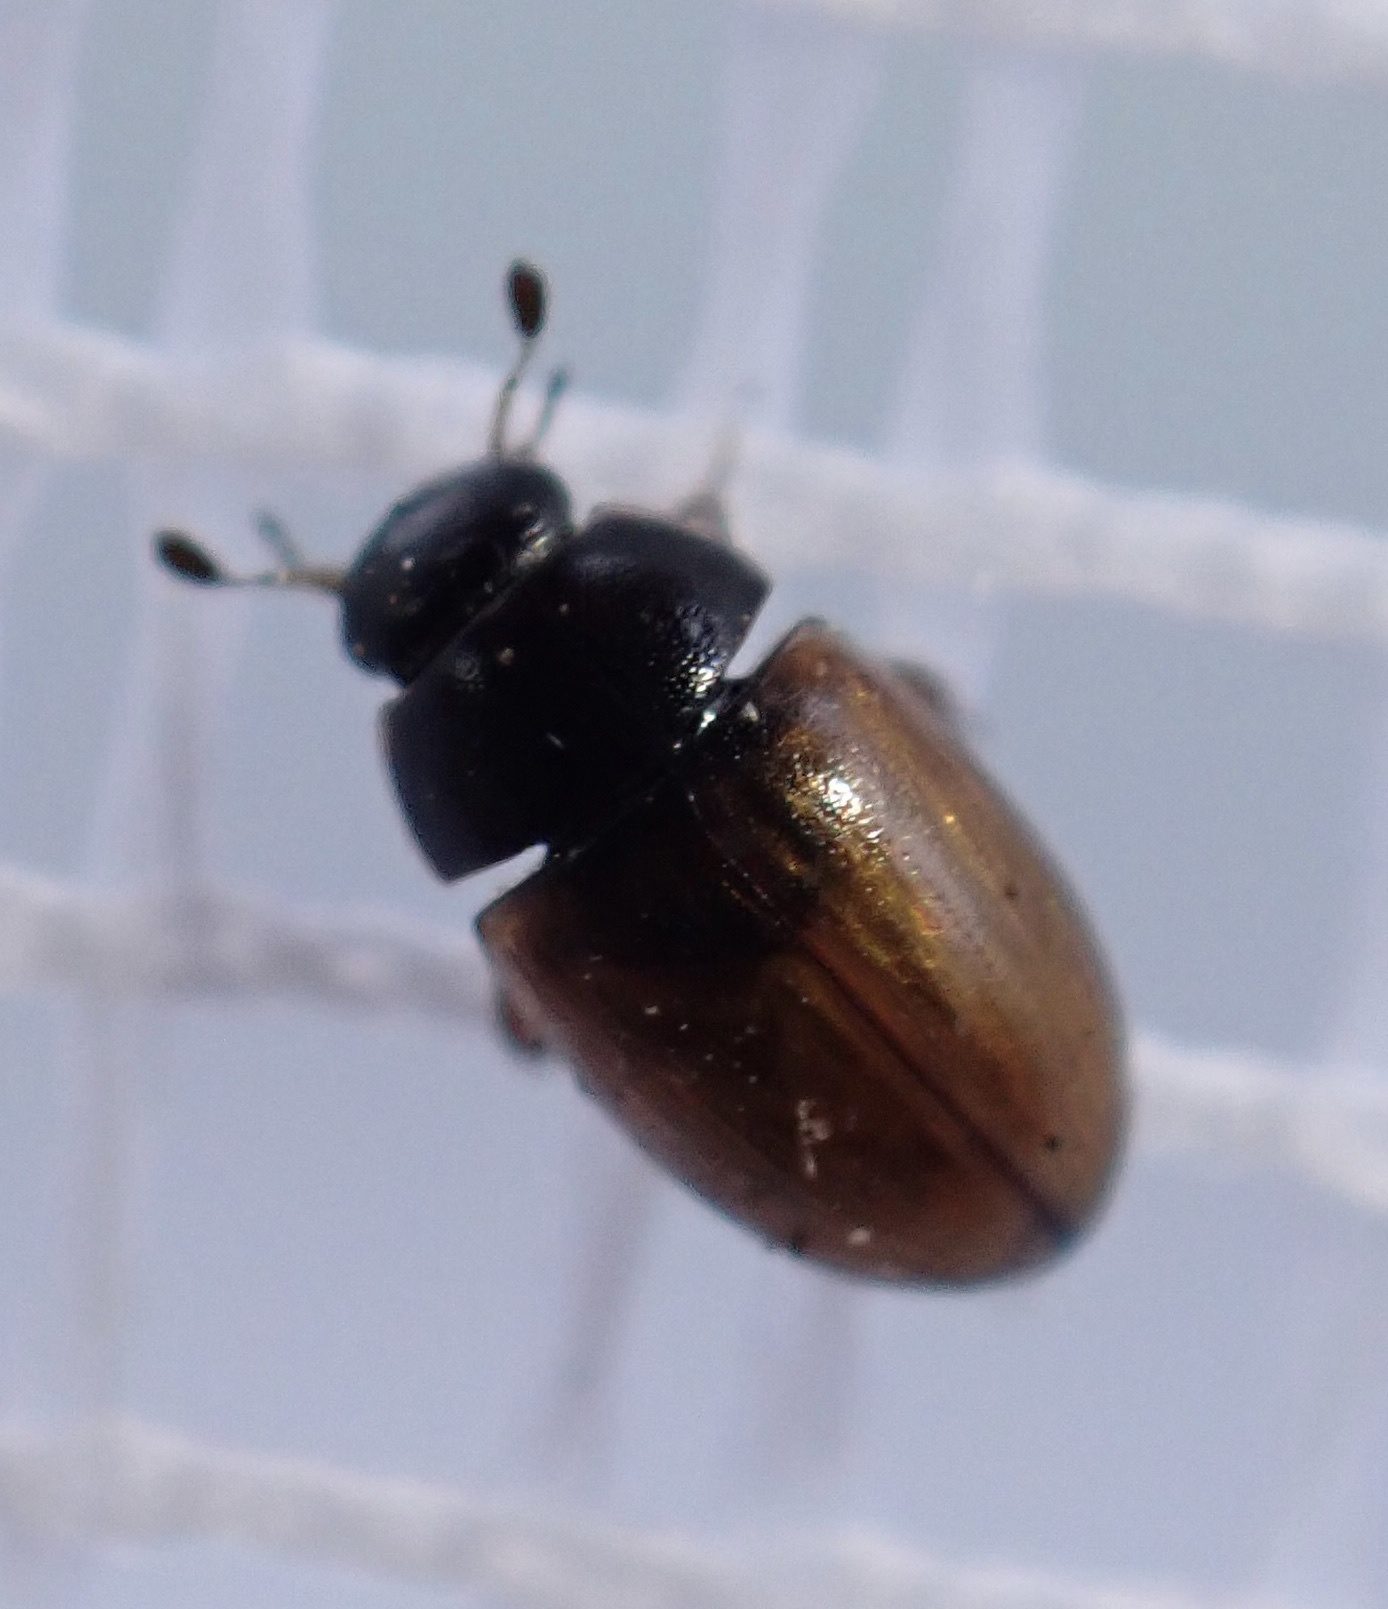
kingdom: Animalia
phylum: Arthropoda
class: Insecta
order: Coleoptera
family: Hydrophilidae
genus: Cercyon
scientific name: Cercyon quisquilius
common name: Water scavenger beetle
